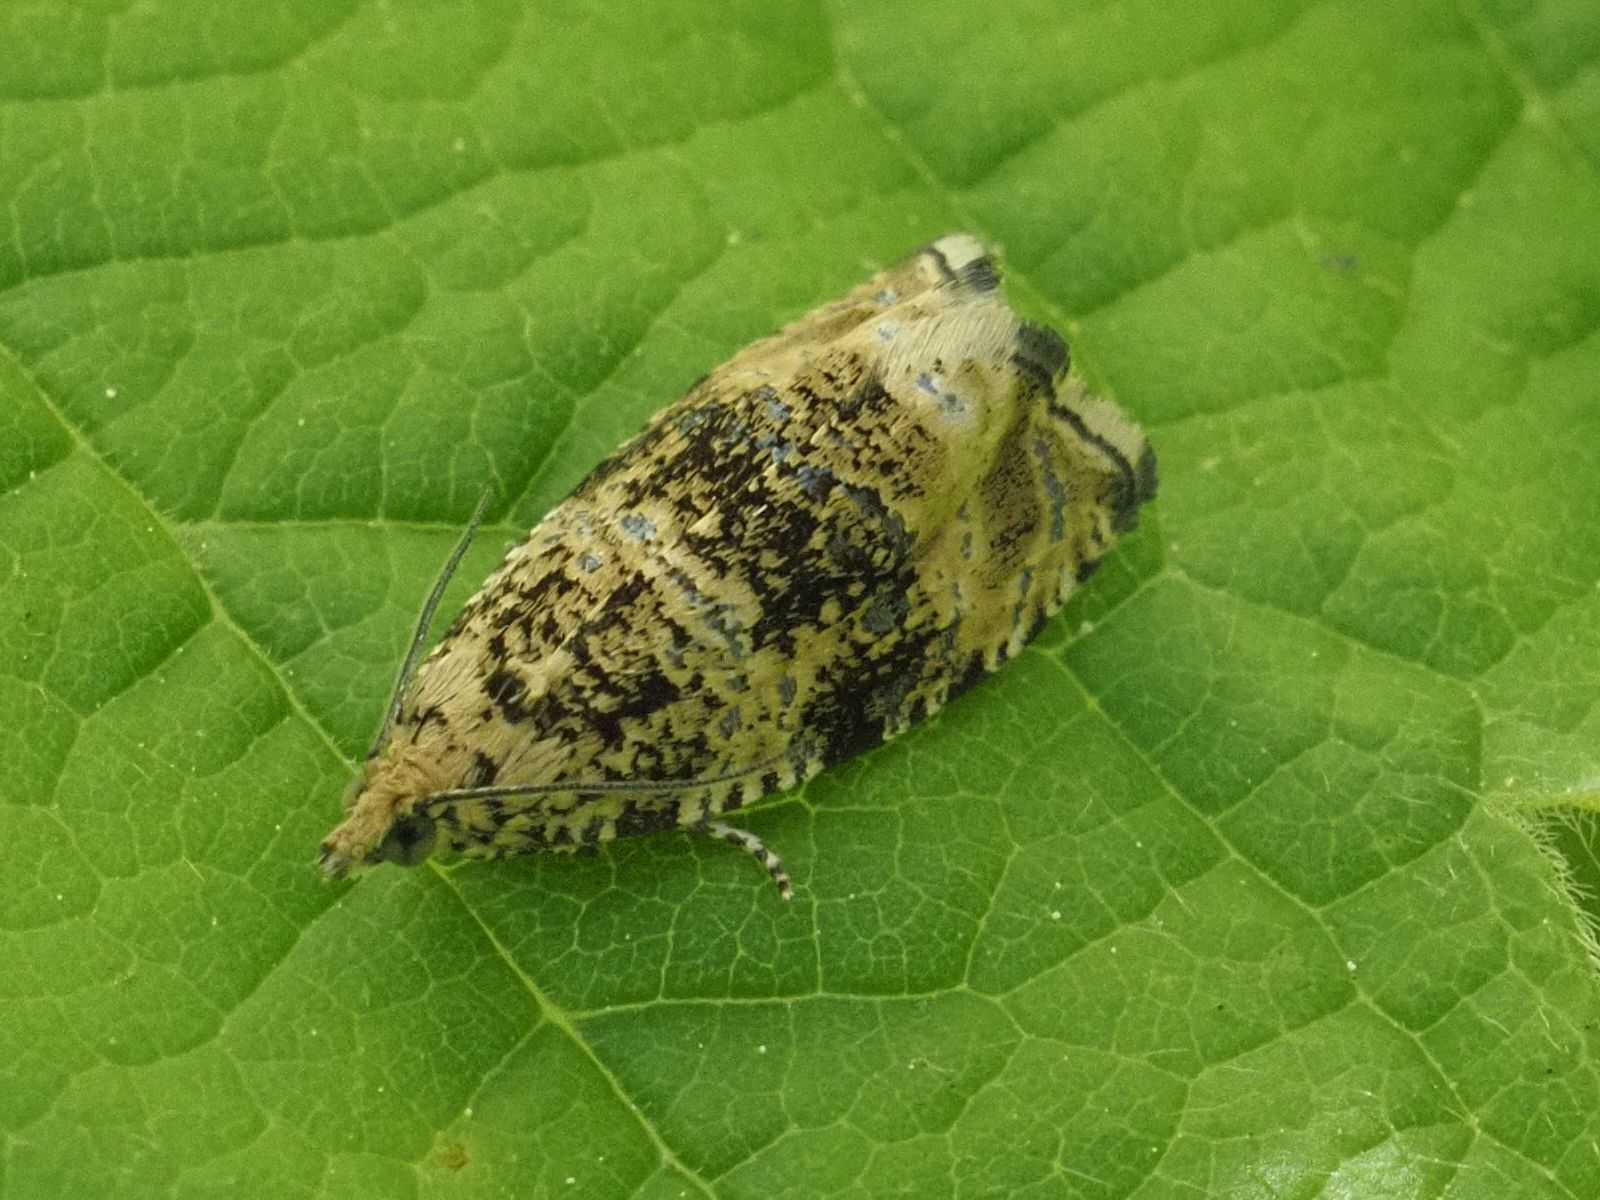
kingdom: Animalia
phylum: Arthropoda
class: Insecta
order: Lepidoptera
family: Tortricidae
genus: Syricoris
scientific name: Syricoris lacunana
